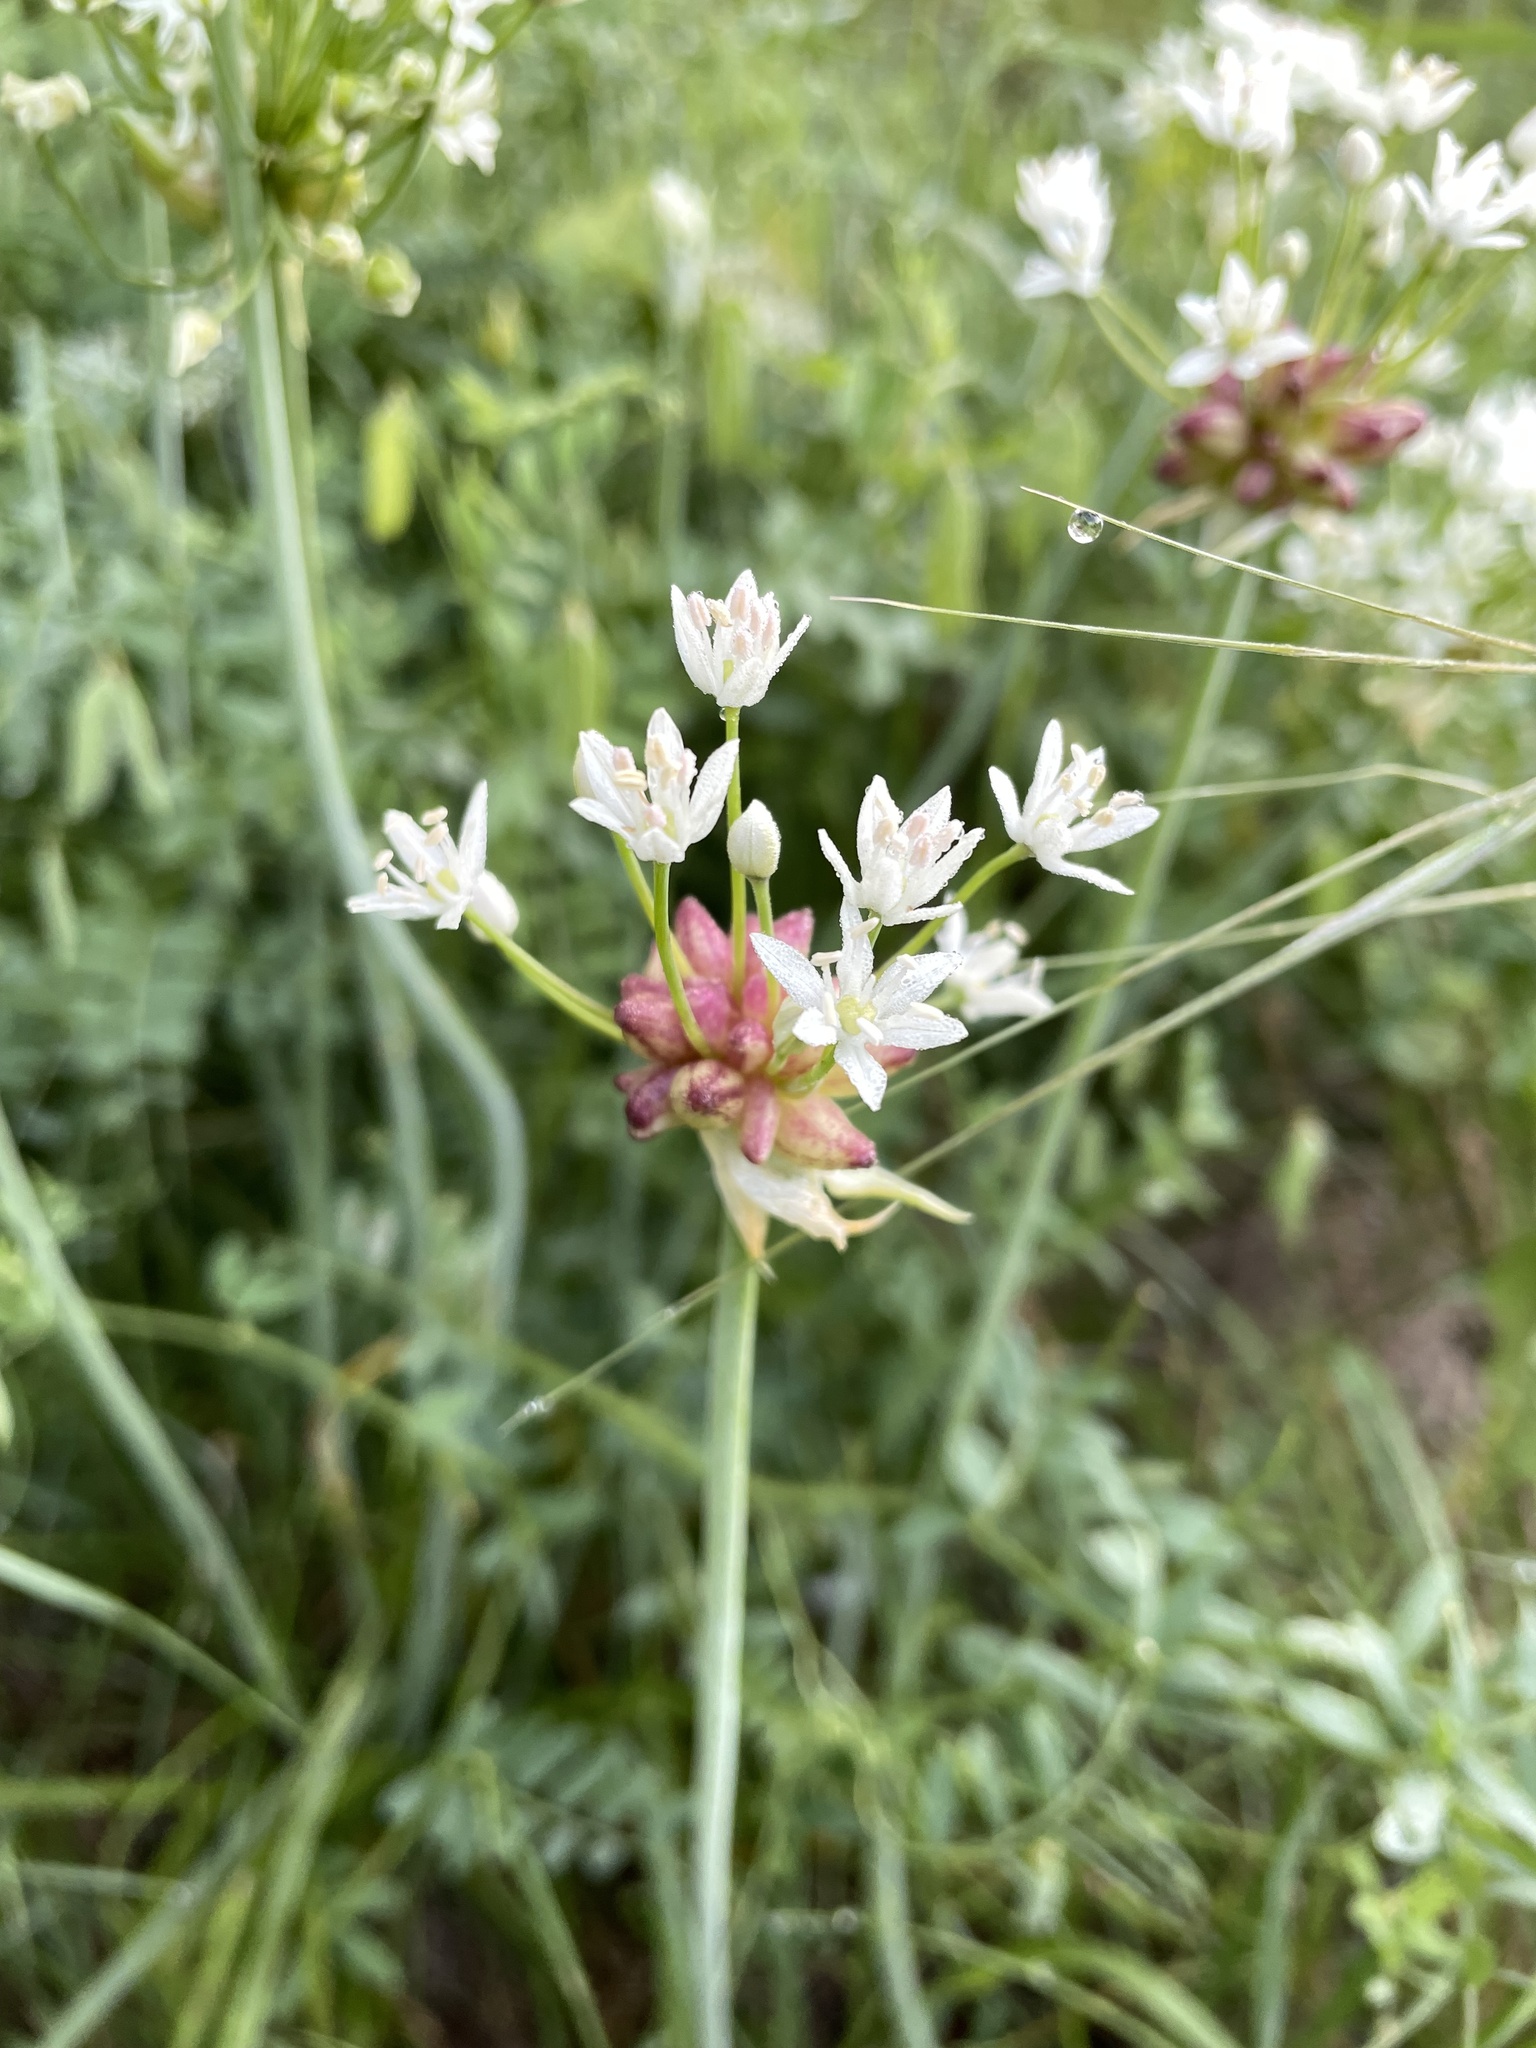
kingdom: Plantae
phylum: Tracheophyta
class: Liliopsida
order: Asparagales
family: Amaryllidaceae
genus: Allium
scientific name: Allium canadense
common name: Meadow garlic
